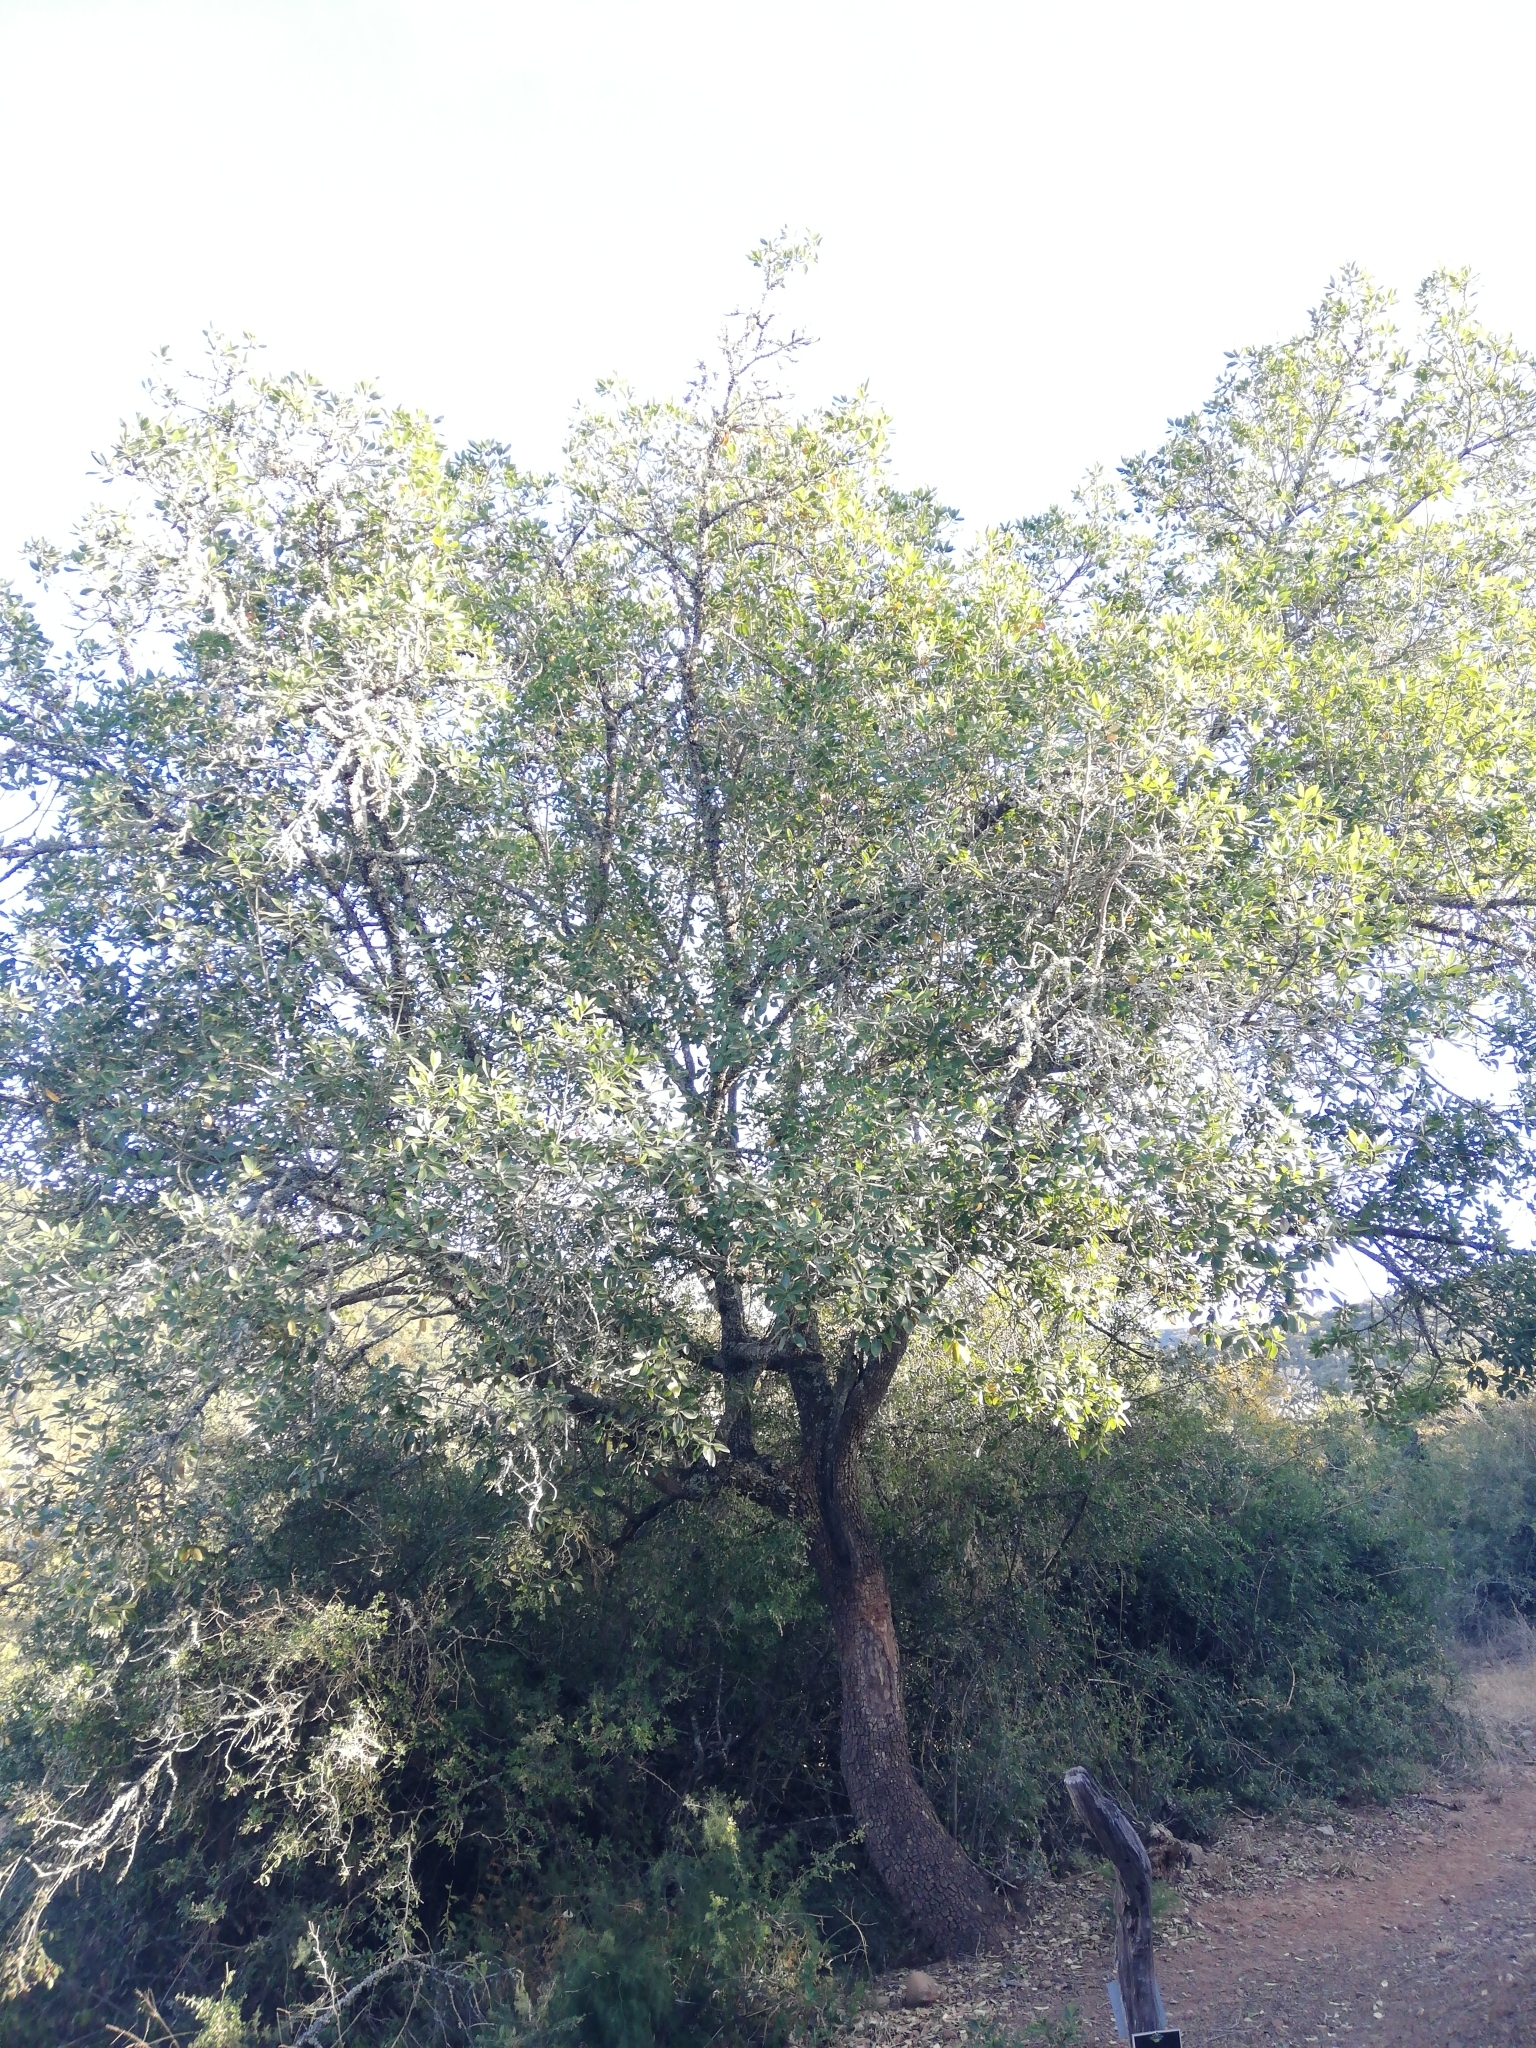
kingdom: Plantae
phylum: Tracheophyta
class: Magnoliopsida
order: Ericales
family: Sapotaceae
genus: Sideroxylon
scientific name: Sideroxylon inerme
